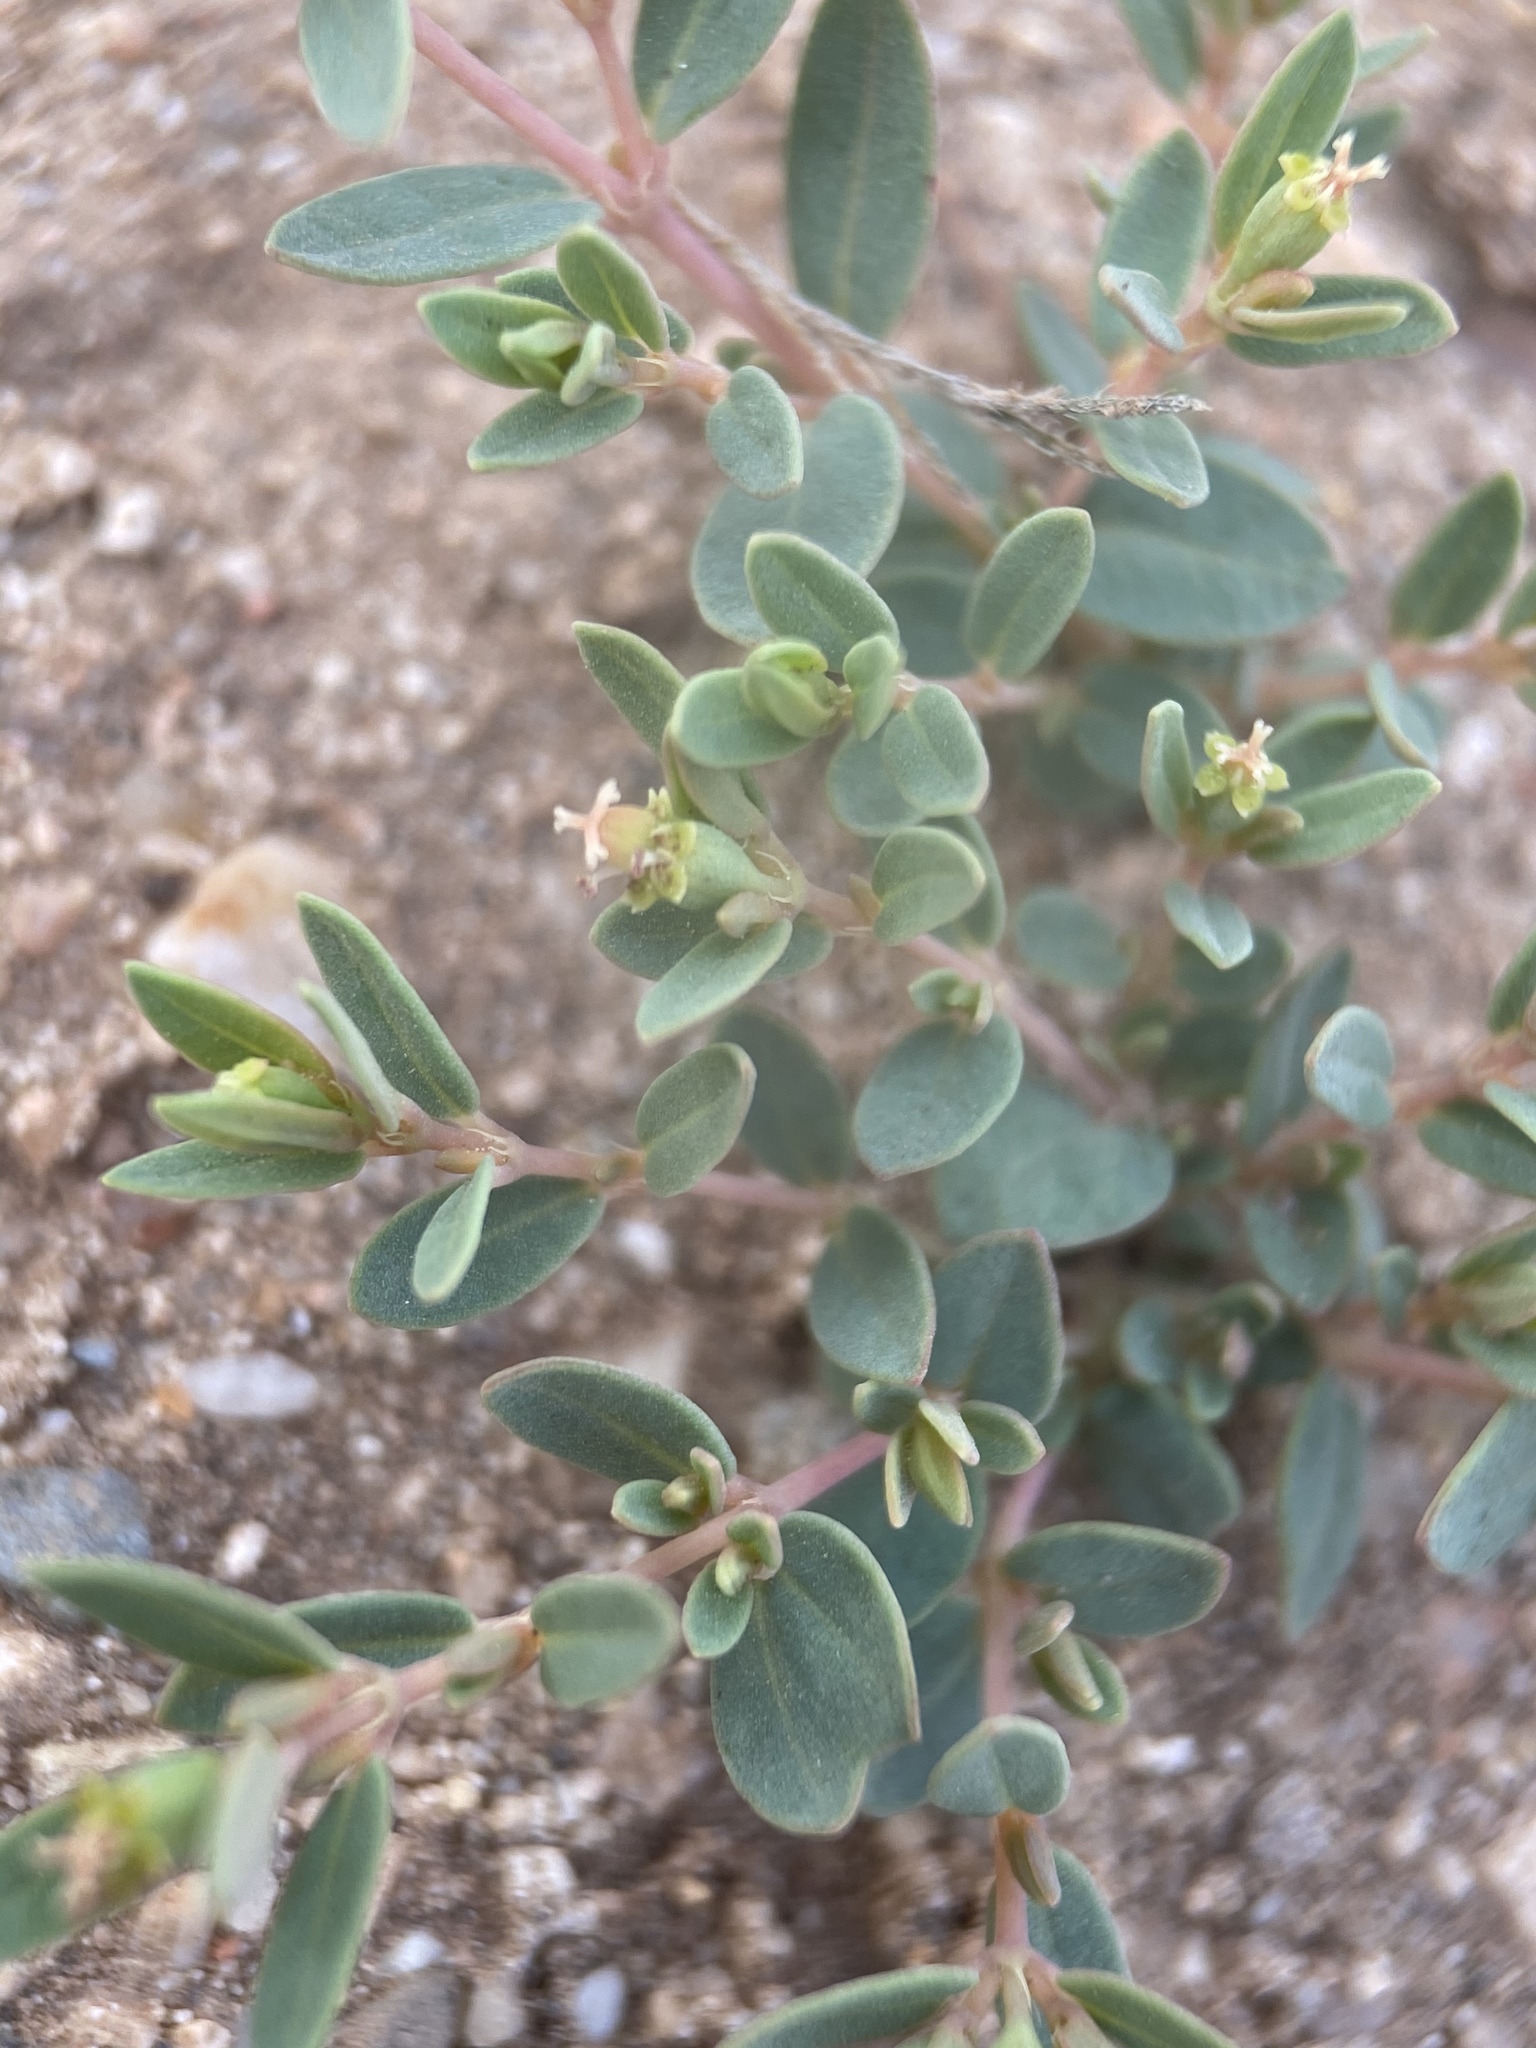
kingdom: Plantae
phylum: Tracheophyta
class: Magnoliopsida
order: Malpighiales
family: Euphorbiaceae
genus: Euphorbia
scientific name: Euphorbia fendleri
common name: Fendler's euphorbia
